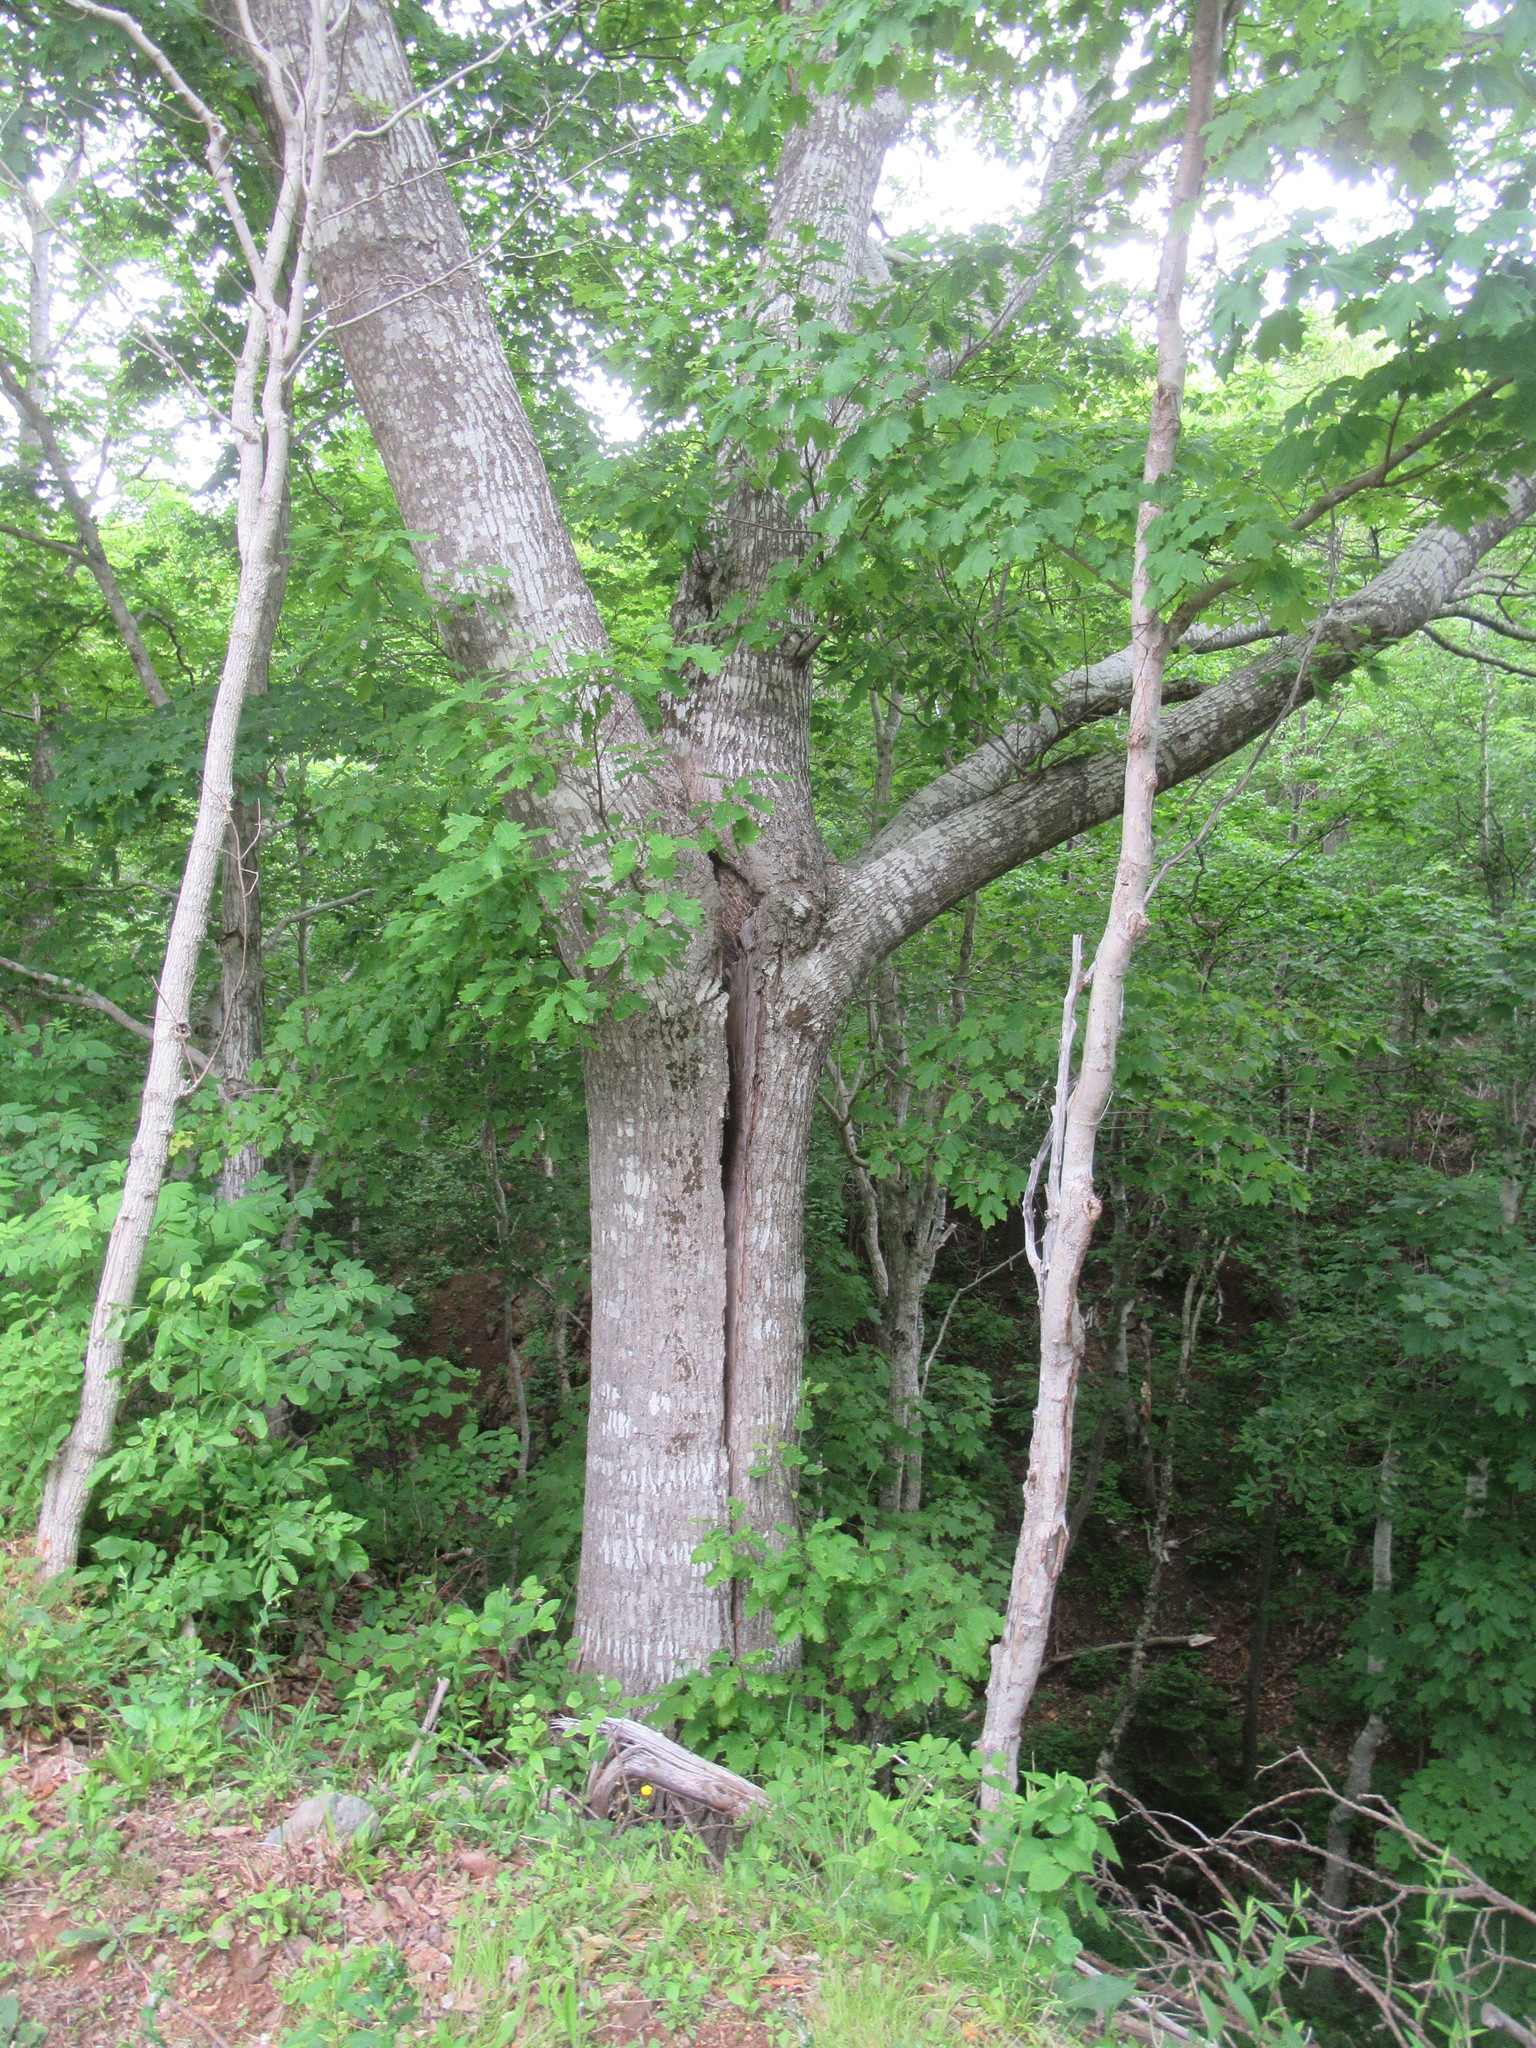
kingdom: Plantae
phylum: Tracheophyta
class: Magnoliopsida
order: Fagales
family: Fagaceae
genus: Quercus
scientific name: Quercus rubra
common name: Red oak
